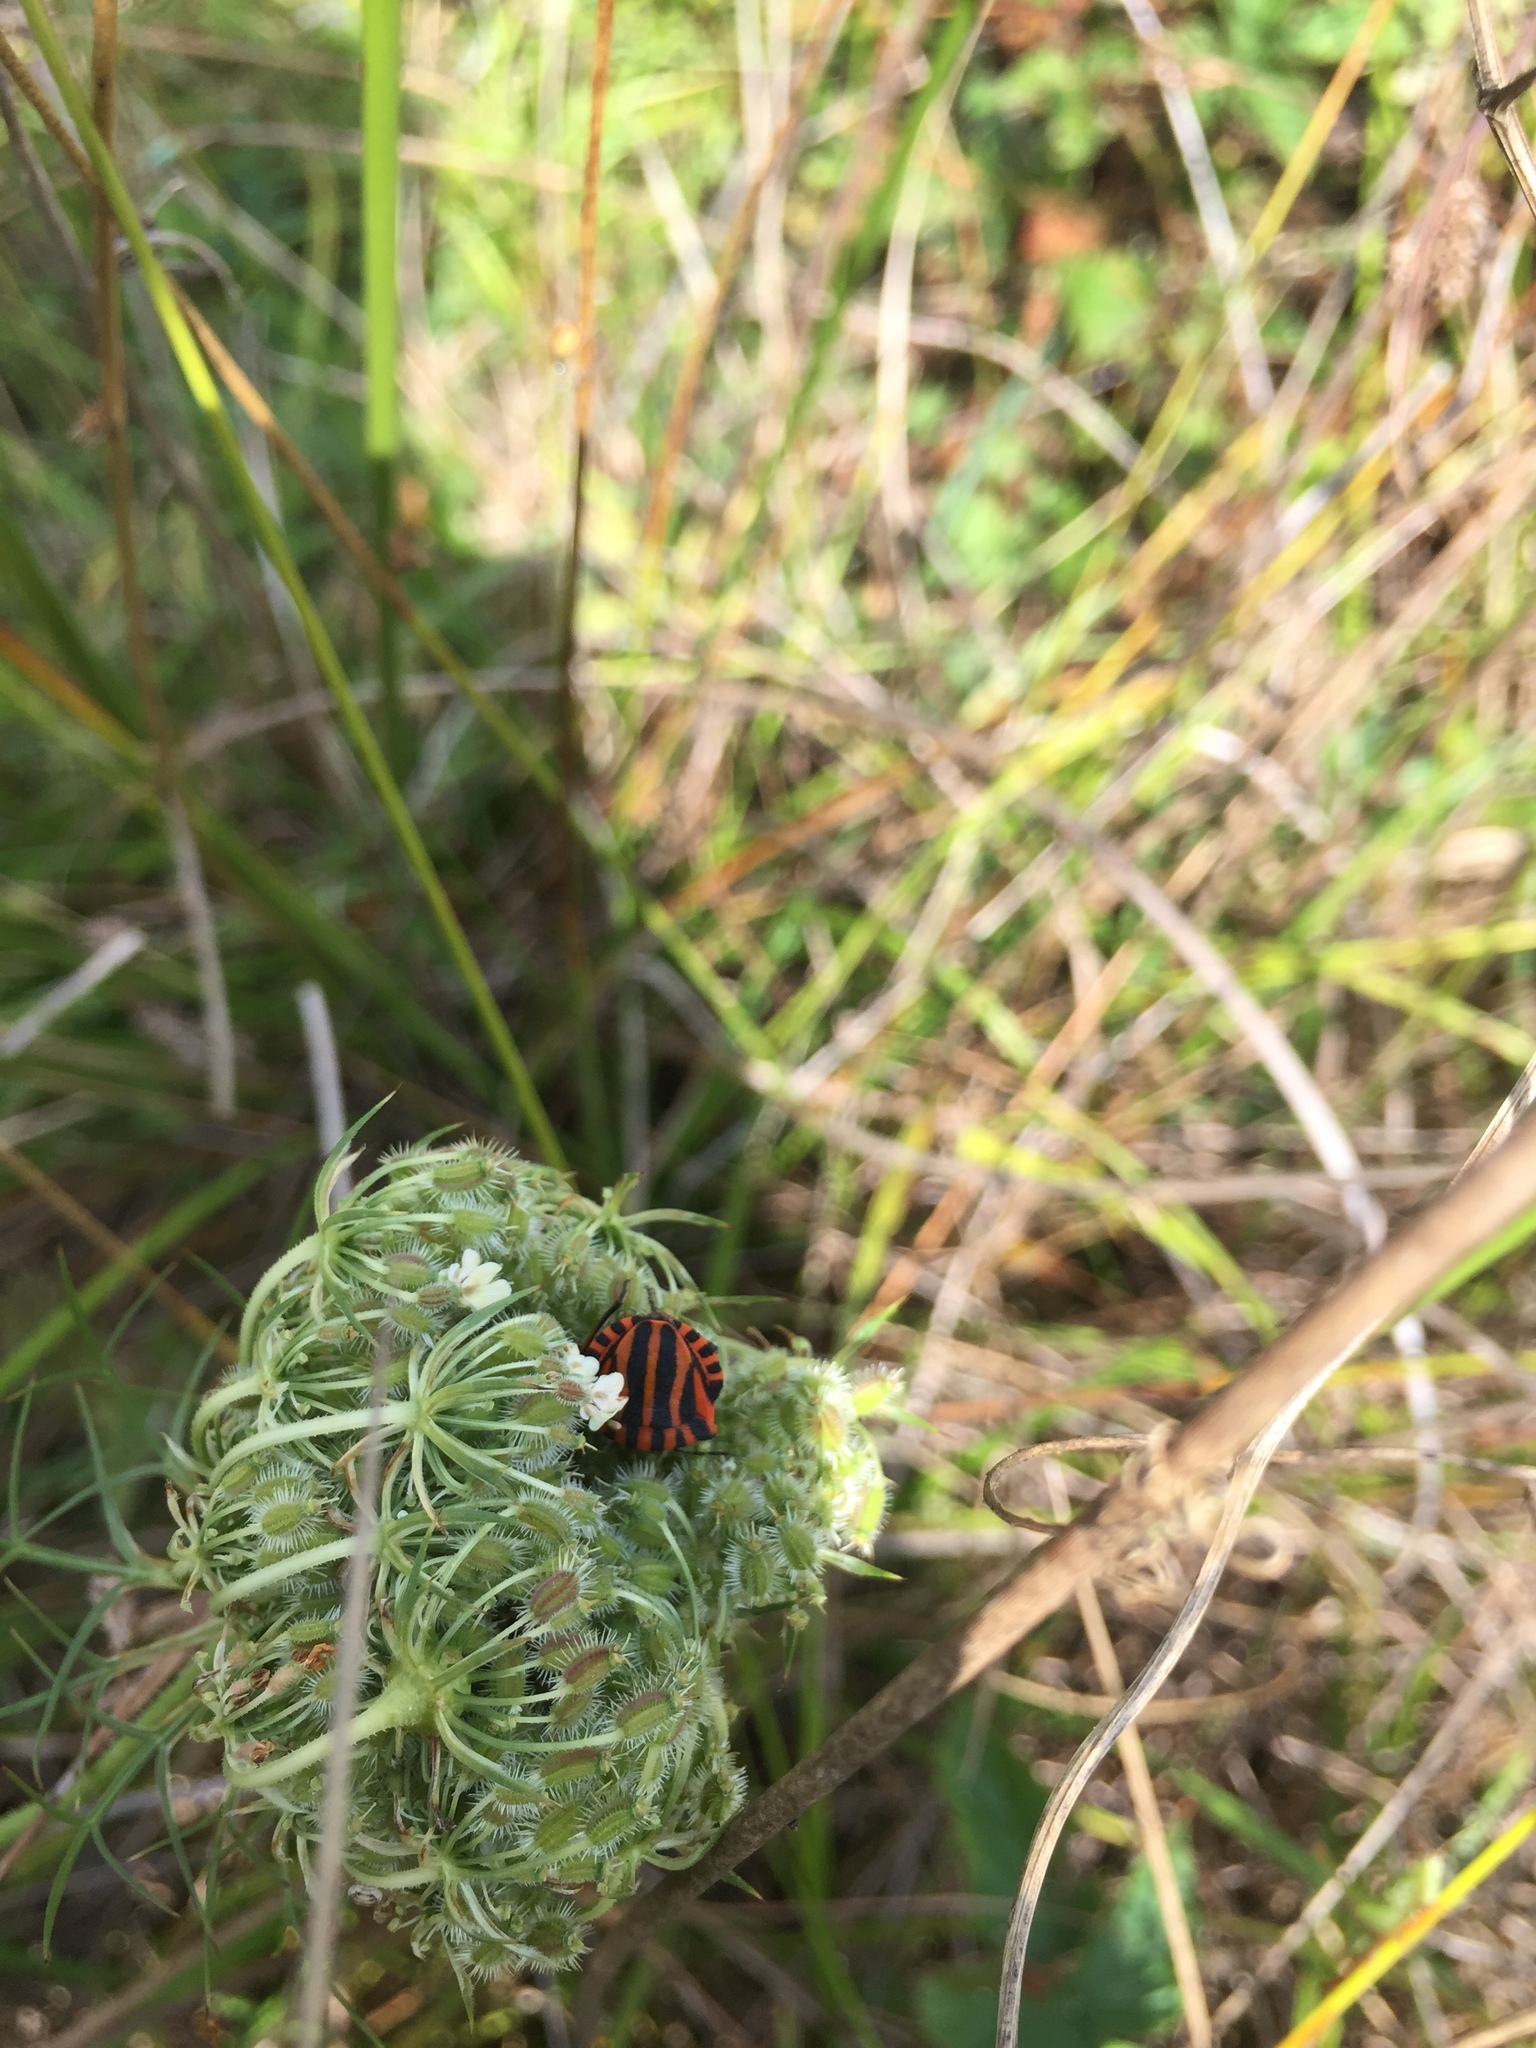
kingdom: Animalia
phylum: Arthropoda
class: Insecta
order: Hemiptera
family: Pentatomidae
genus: Graphosoma
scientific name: Graphosoma italicum
